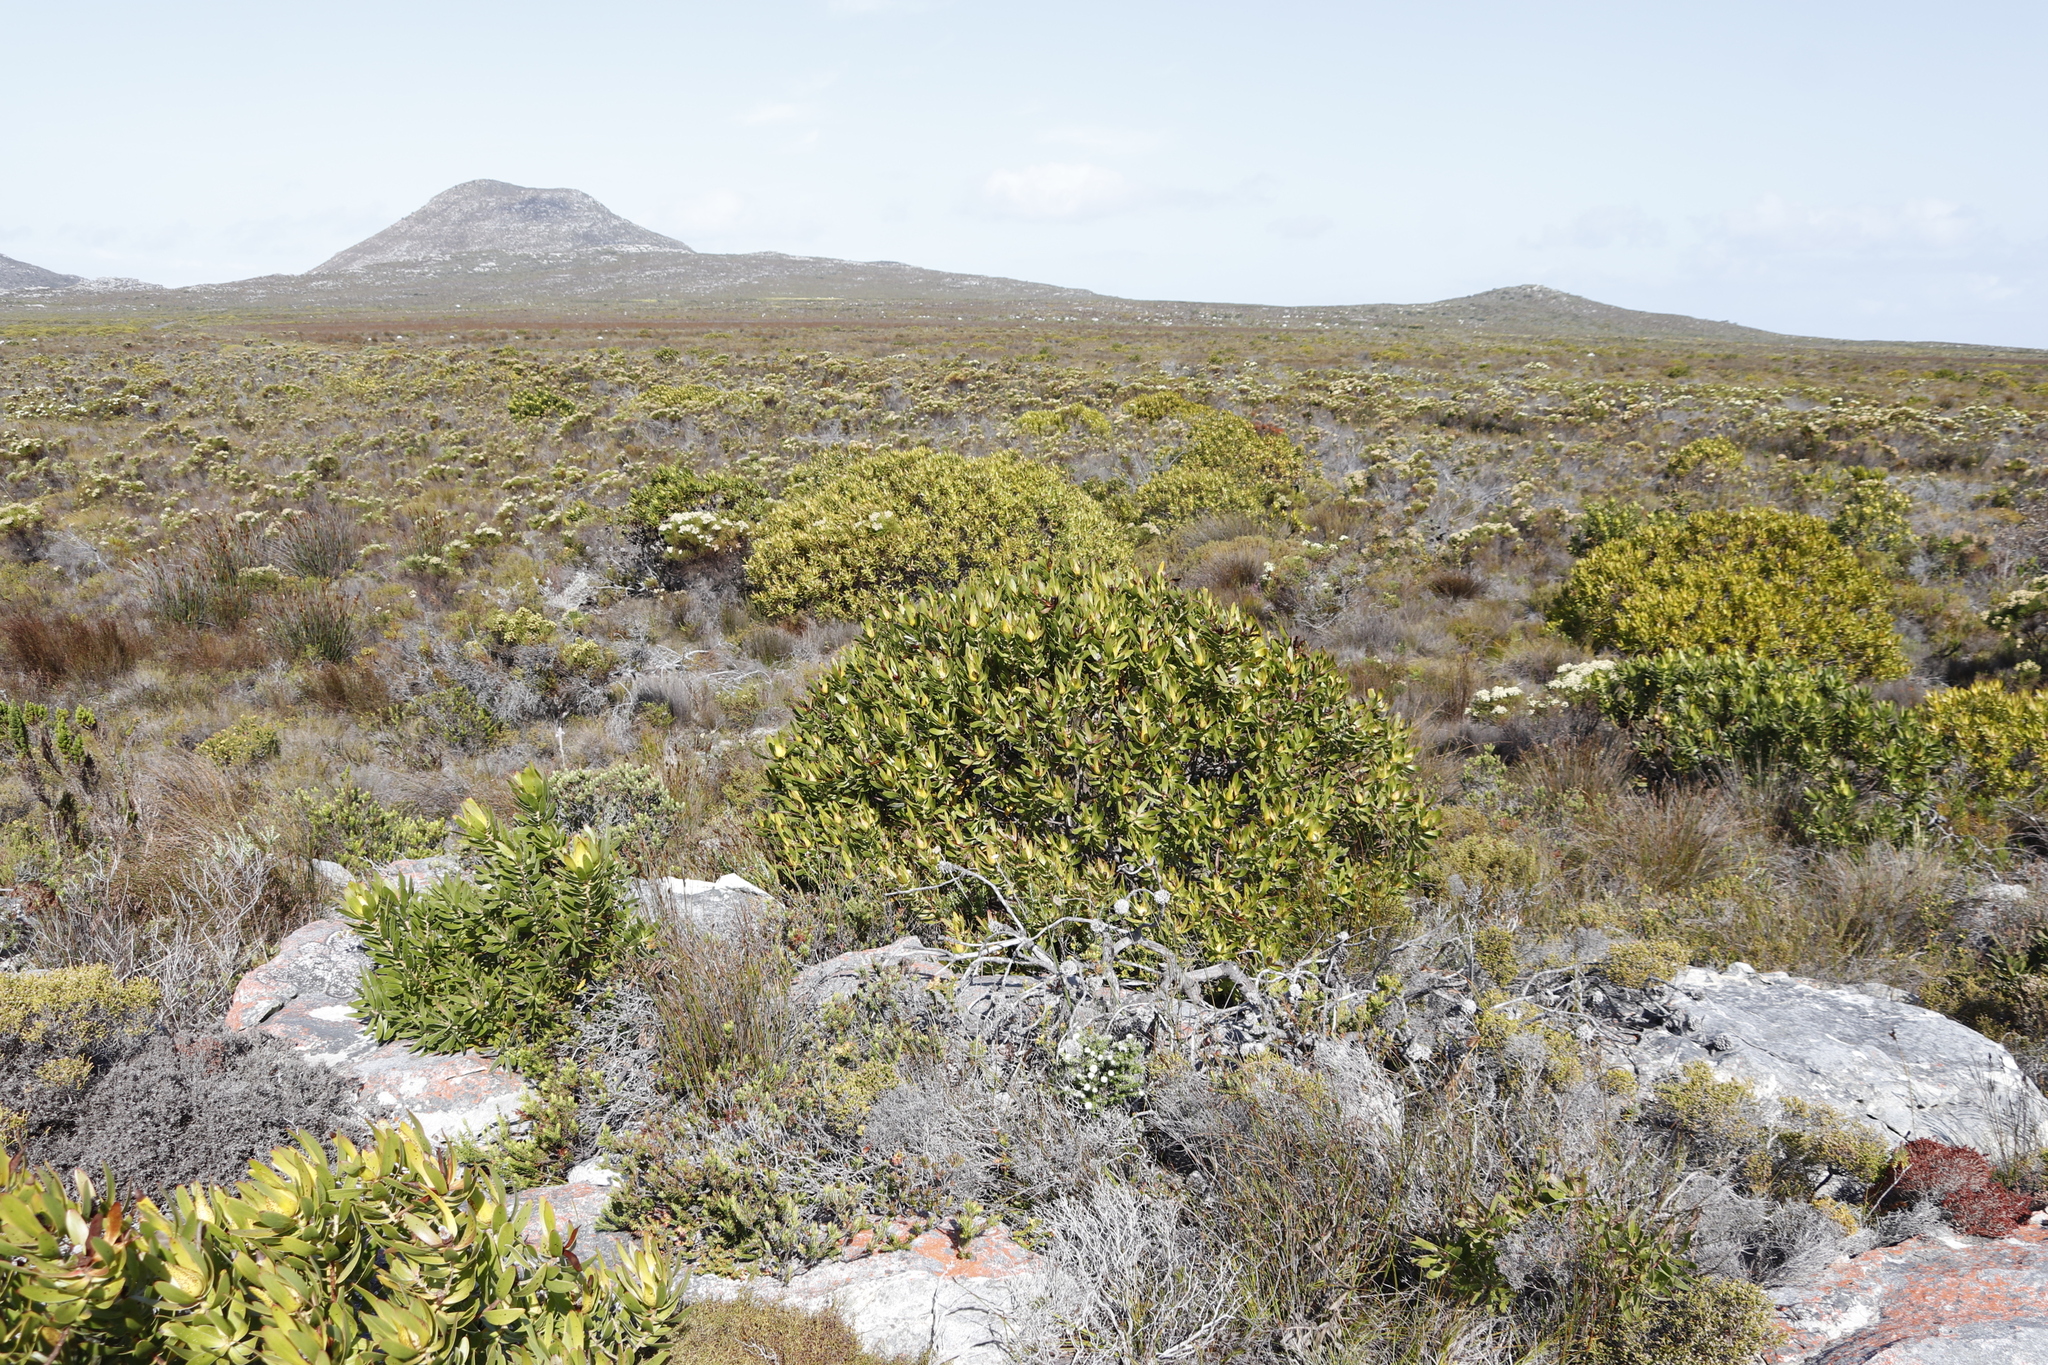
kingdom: Plantae
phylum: Tracheophyta
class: Magnoliopsida
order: Proteales
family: Proteaceae
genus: Leucadendron
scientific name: Leucadendron laureolum
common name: Golden sunshinebush
